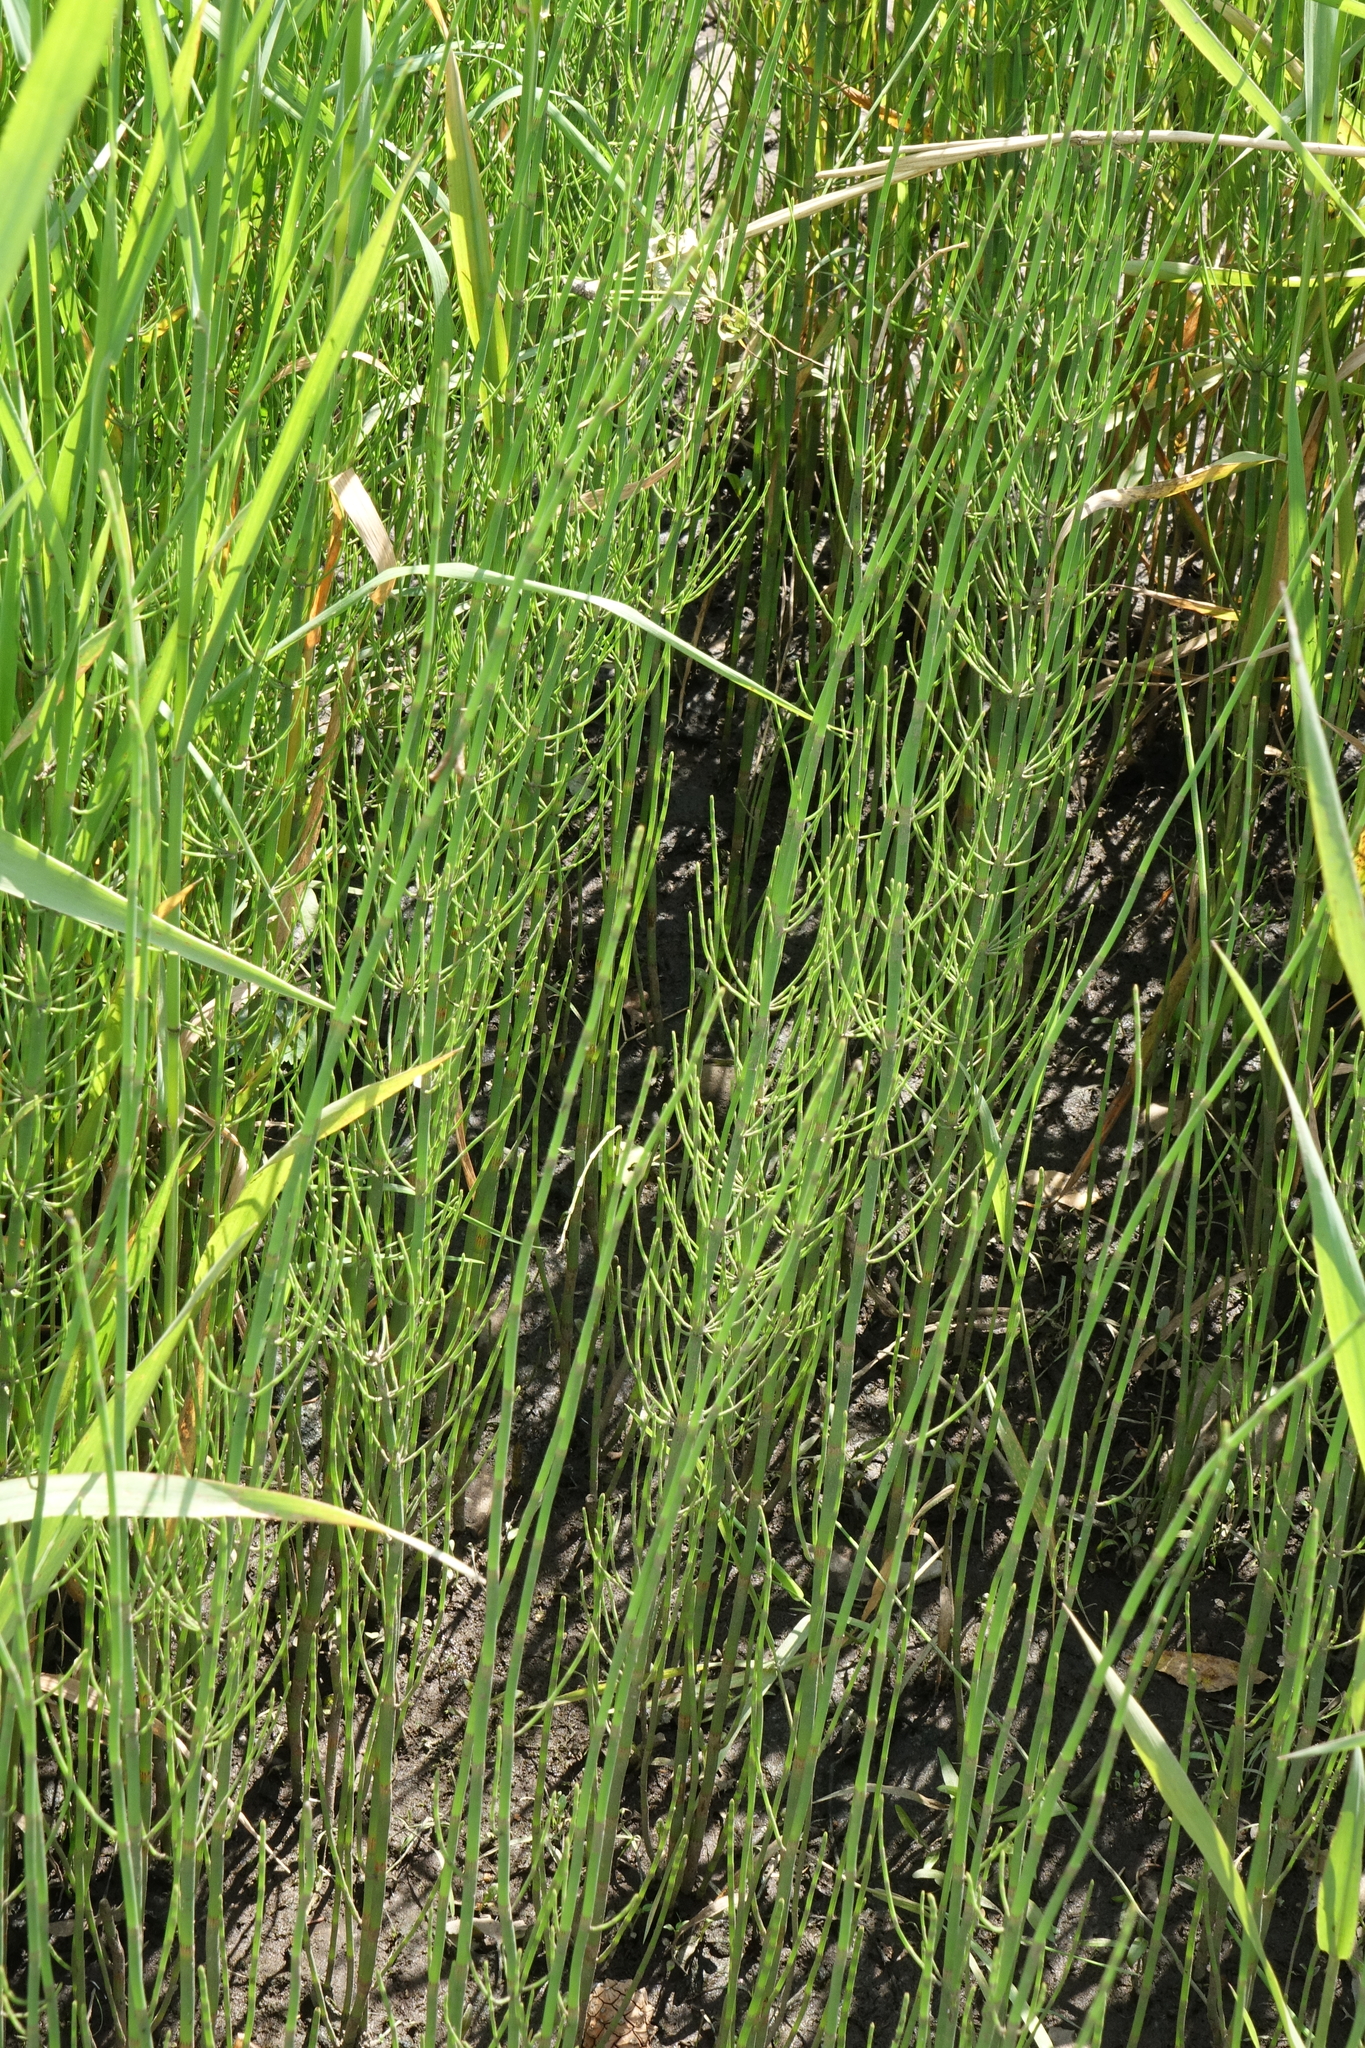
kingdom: Plantae
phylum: Tracheophyta
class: Polypodiopsida
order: Equisetales
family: Equisetaceae
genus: Equisetum
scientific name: Equisetum fluviatile
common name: Water horsetail
